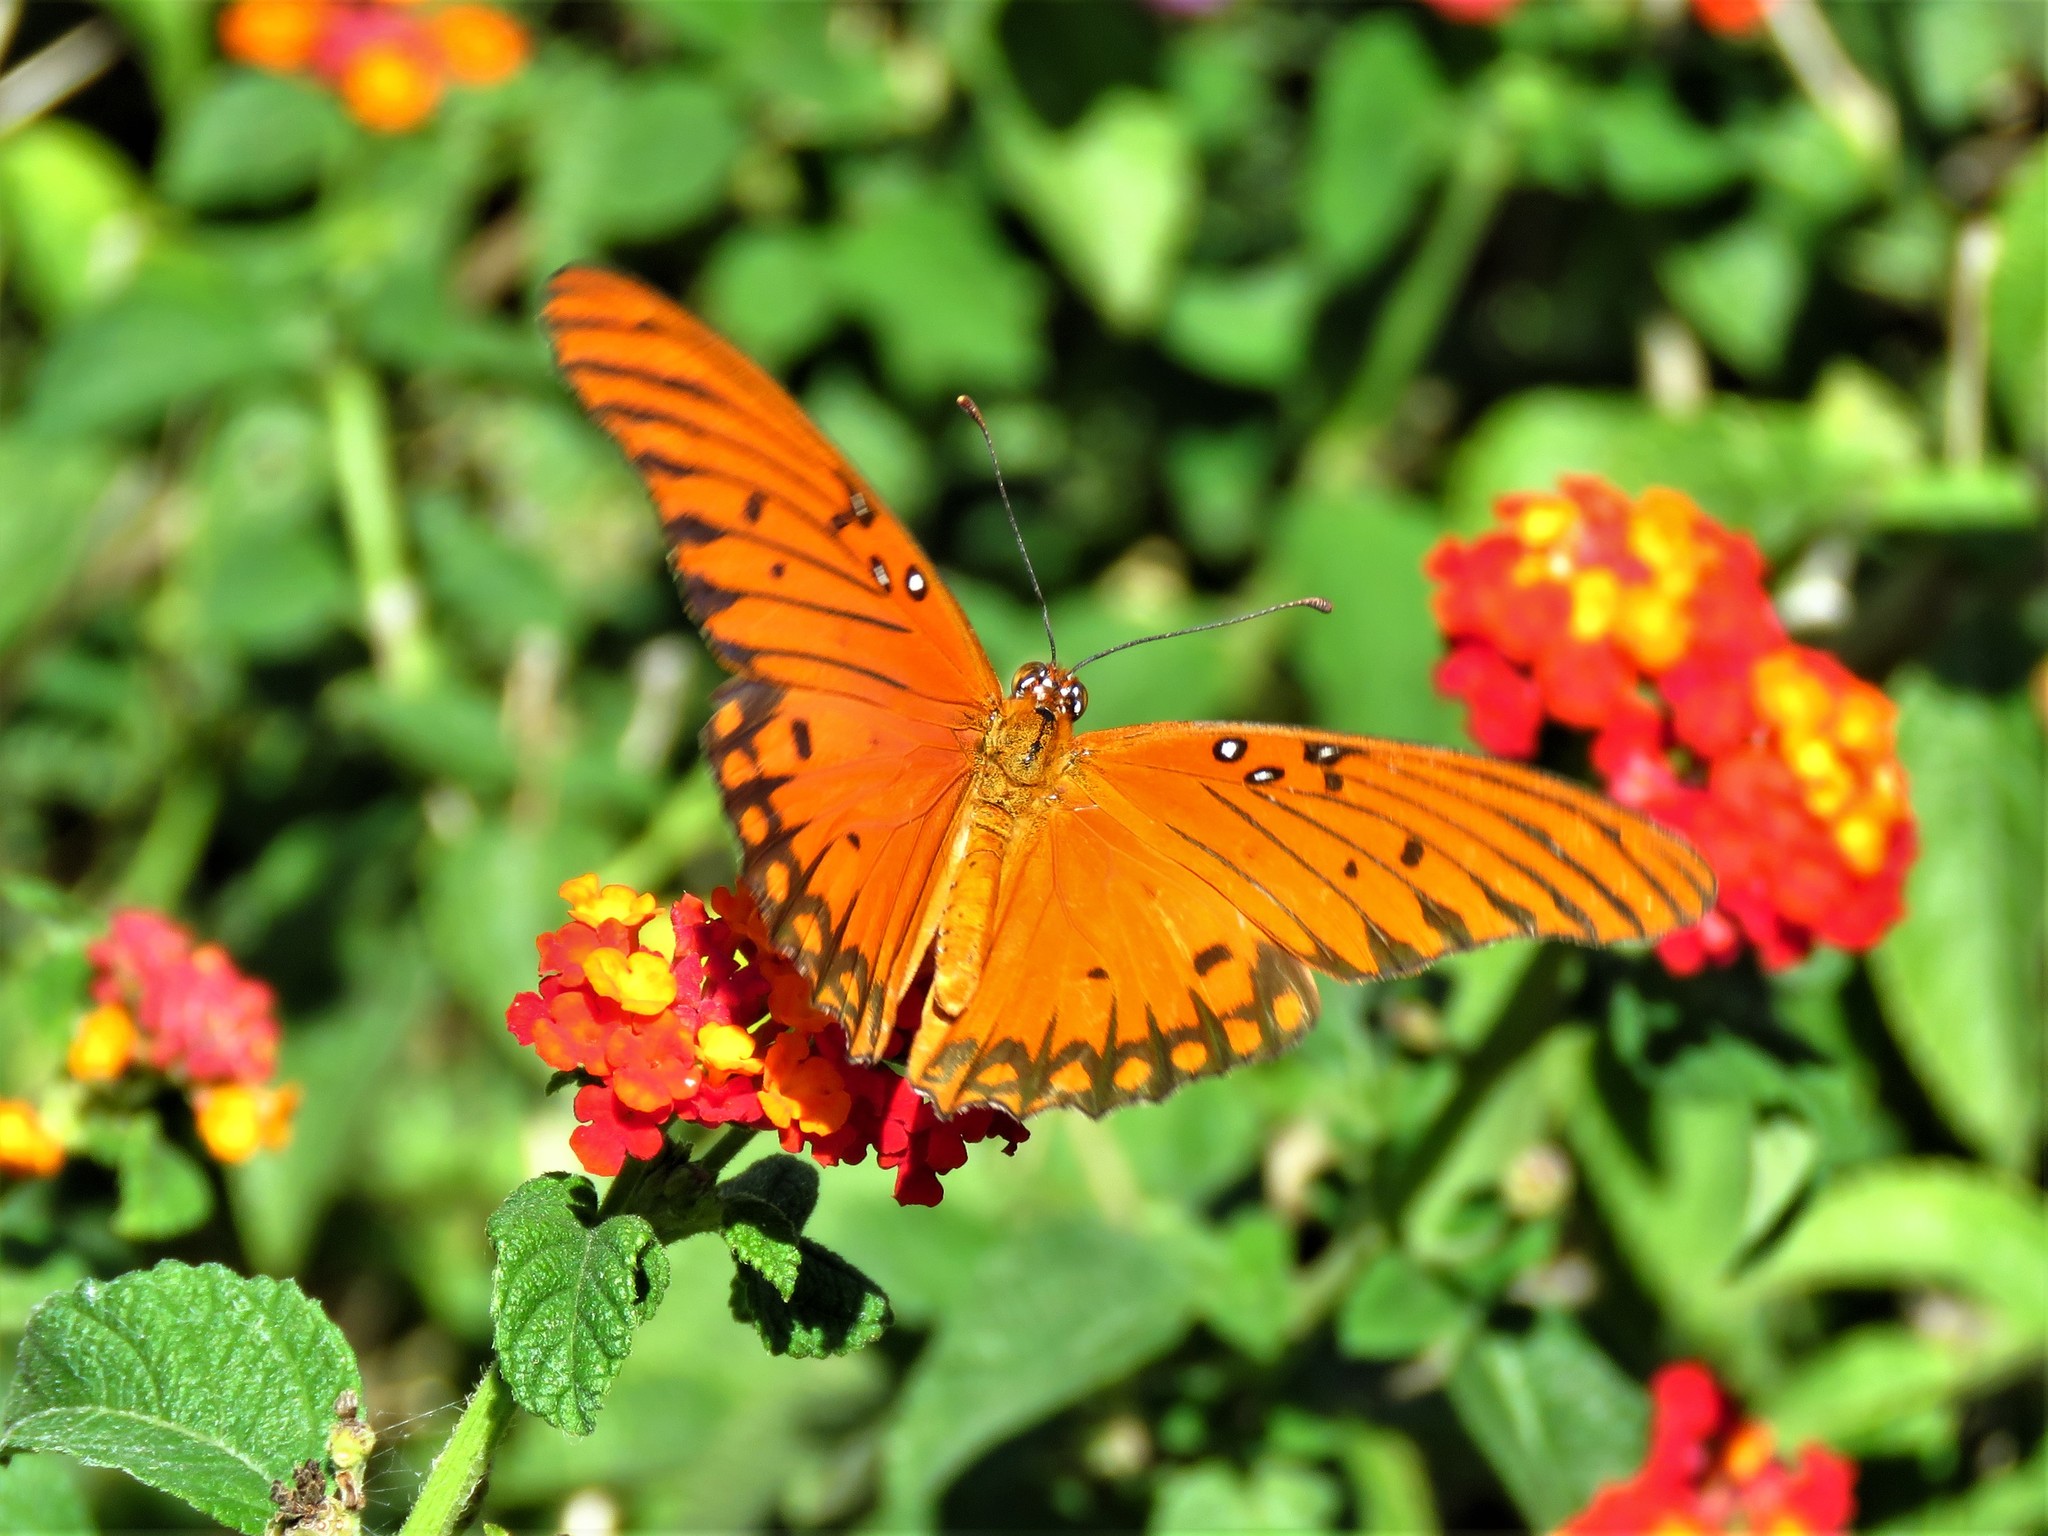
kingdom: Animalia
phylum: Arthropoda
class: Insecta
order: Lepidoptera
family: Nymphalidae
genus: Dione
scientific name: Dione vanillae
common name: Gulf fritillary
